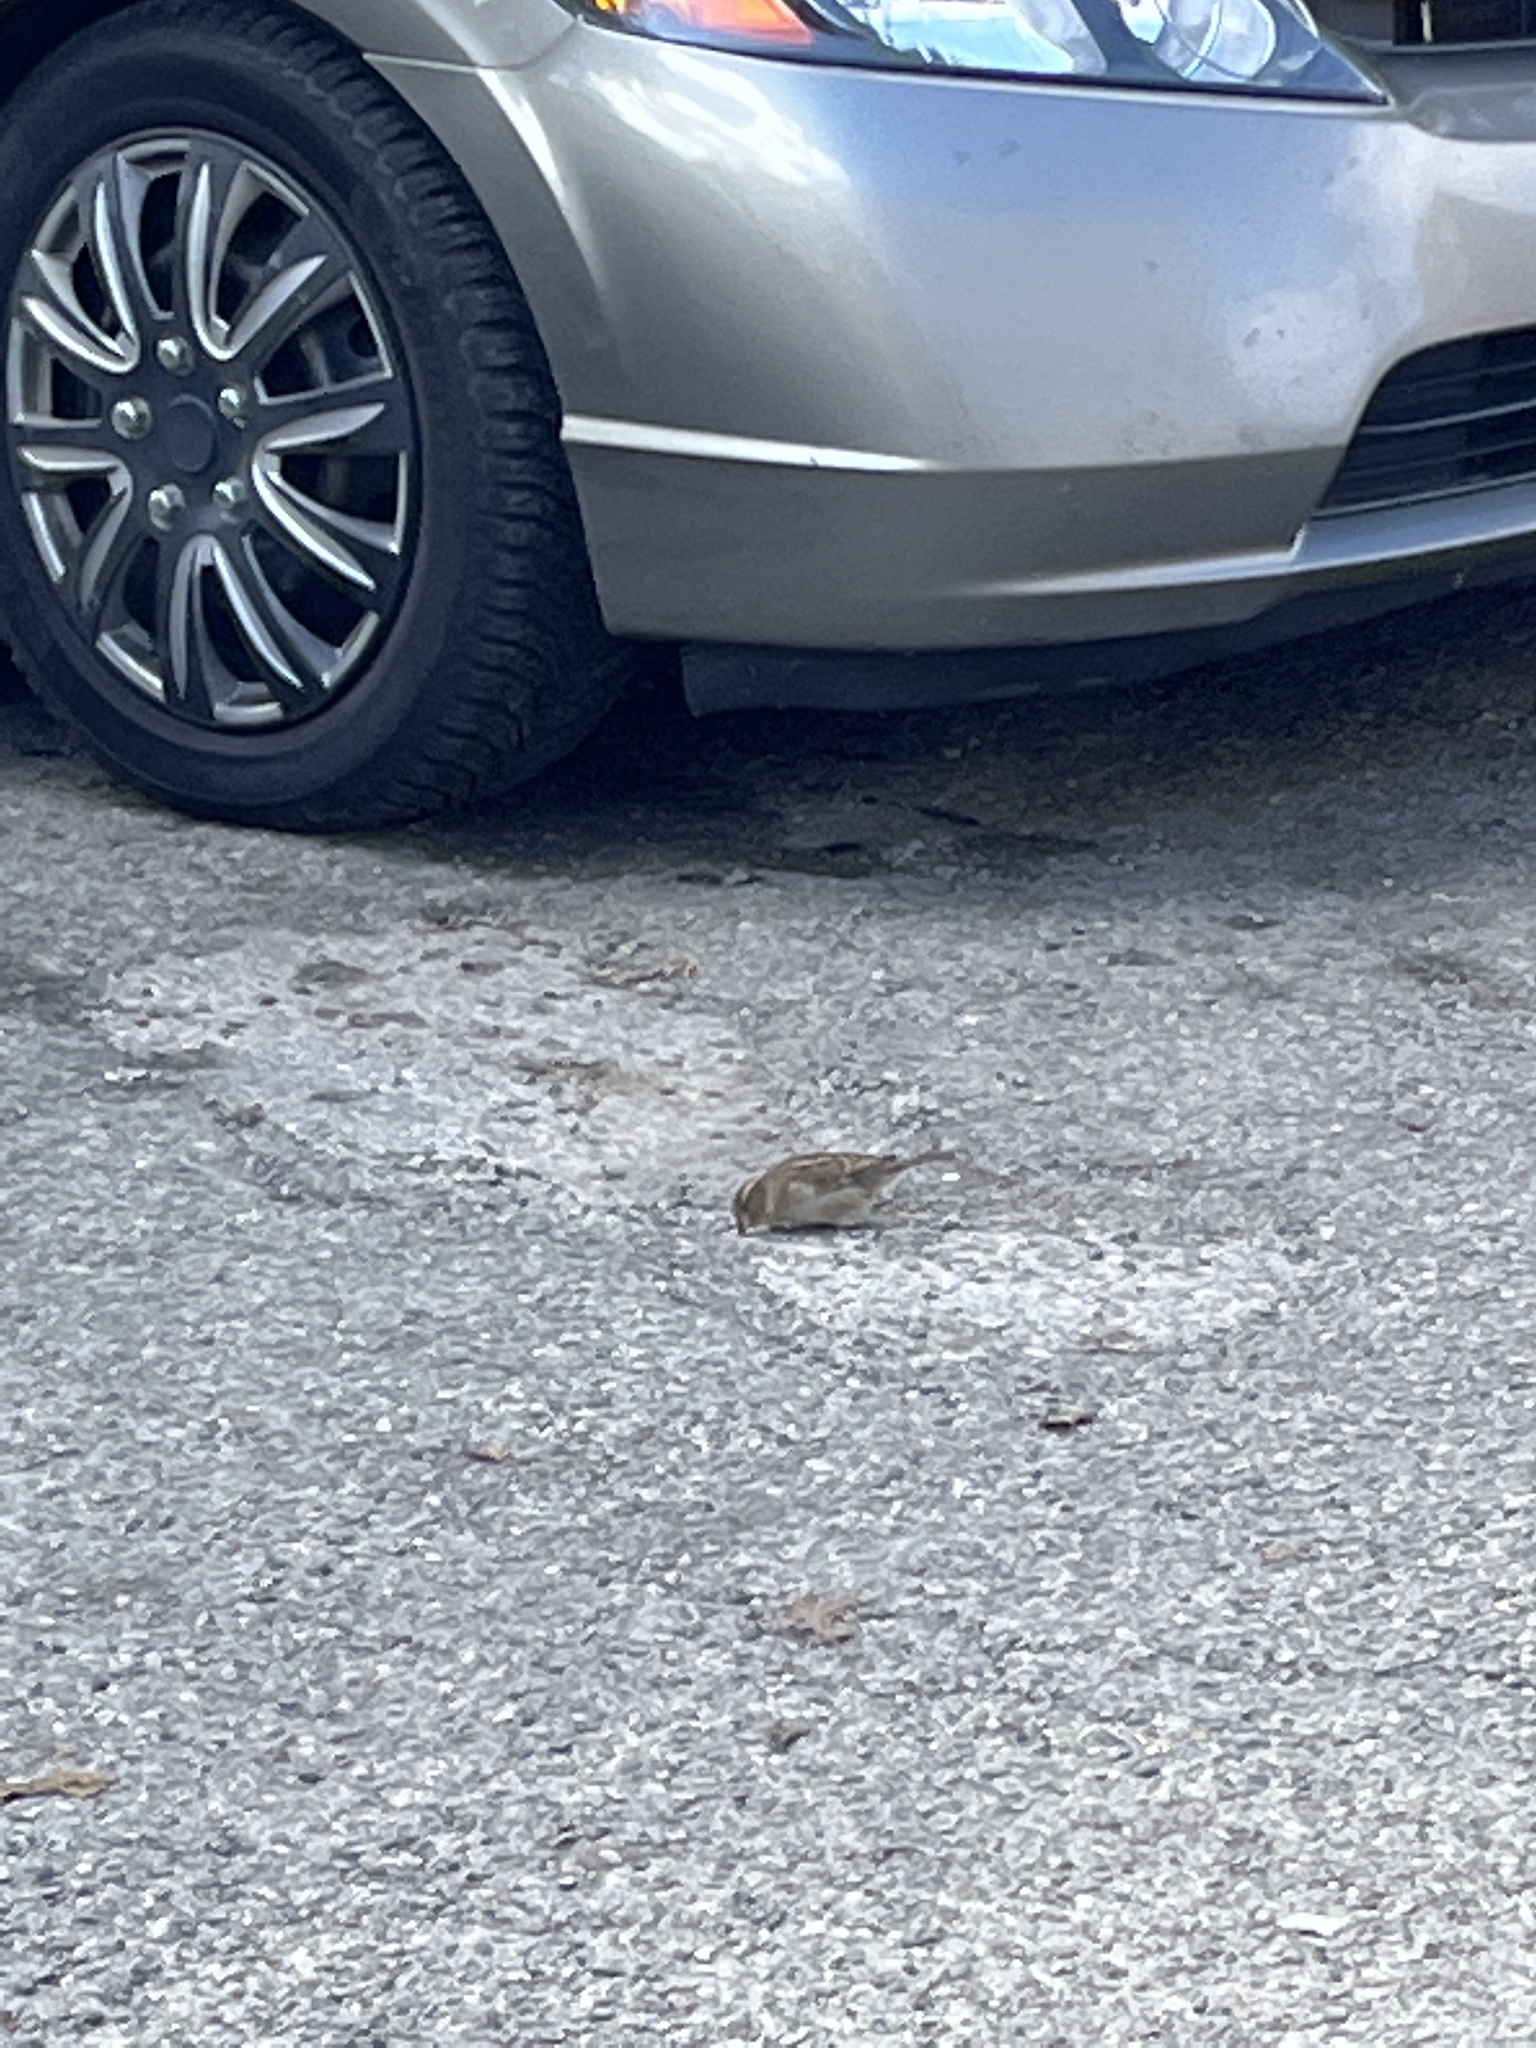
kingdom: Animalia
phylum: Chordata
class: Aves
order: Passeriformes
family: Passeridae
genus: Passer
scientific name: Passer domesticus
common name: House sparrow
